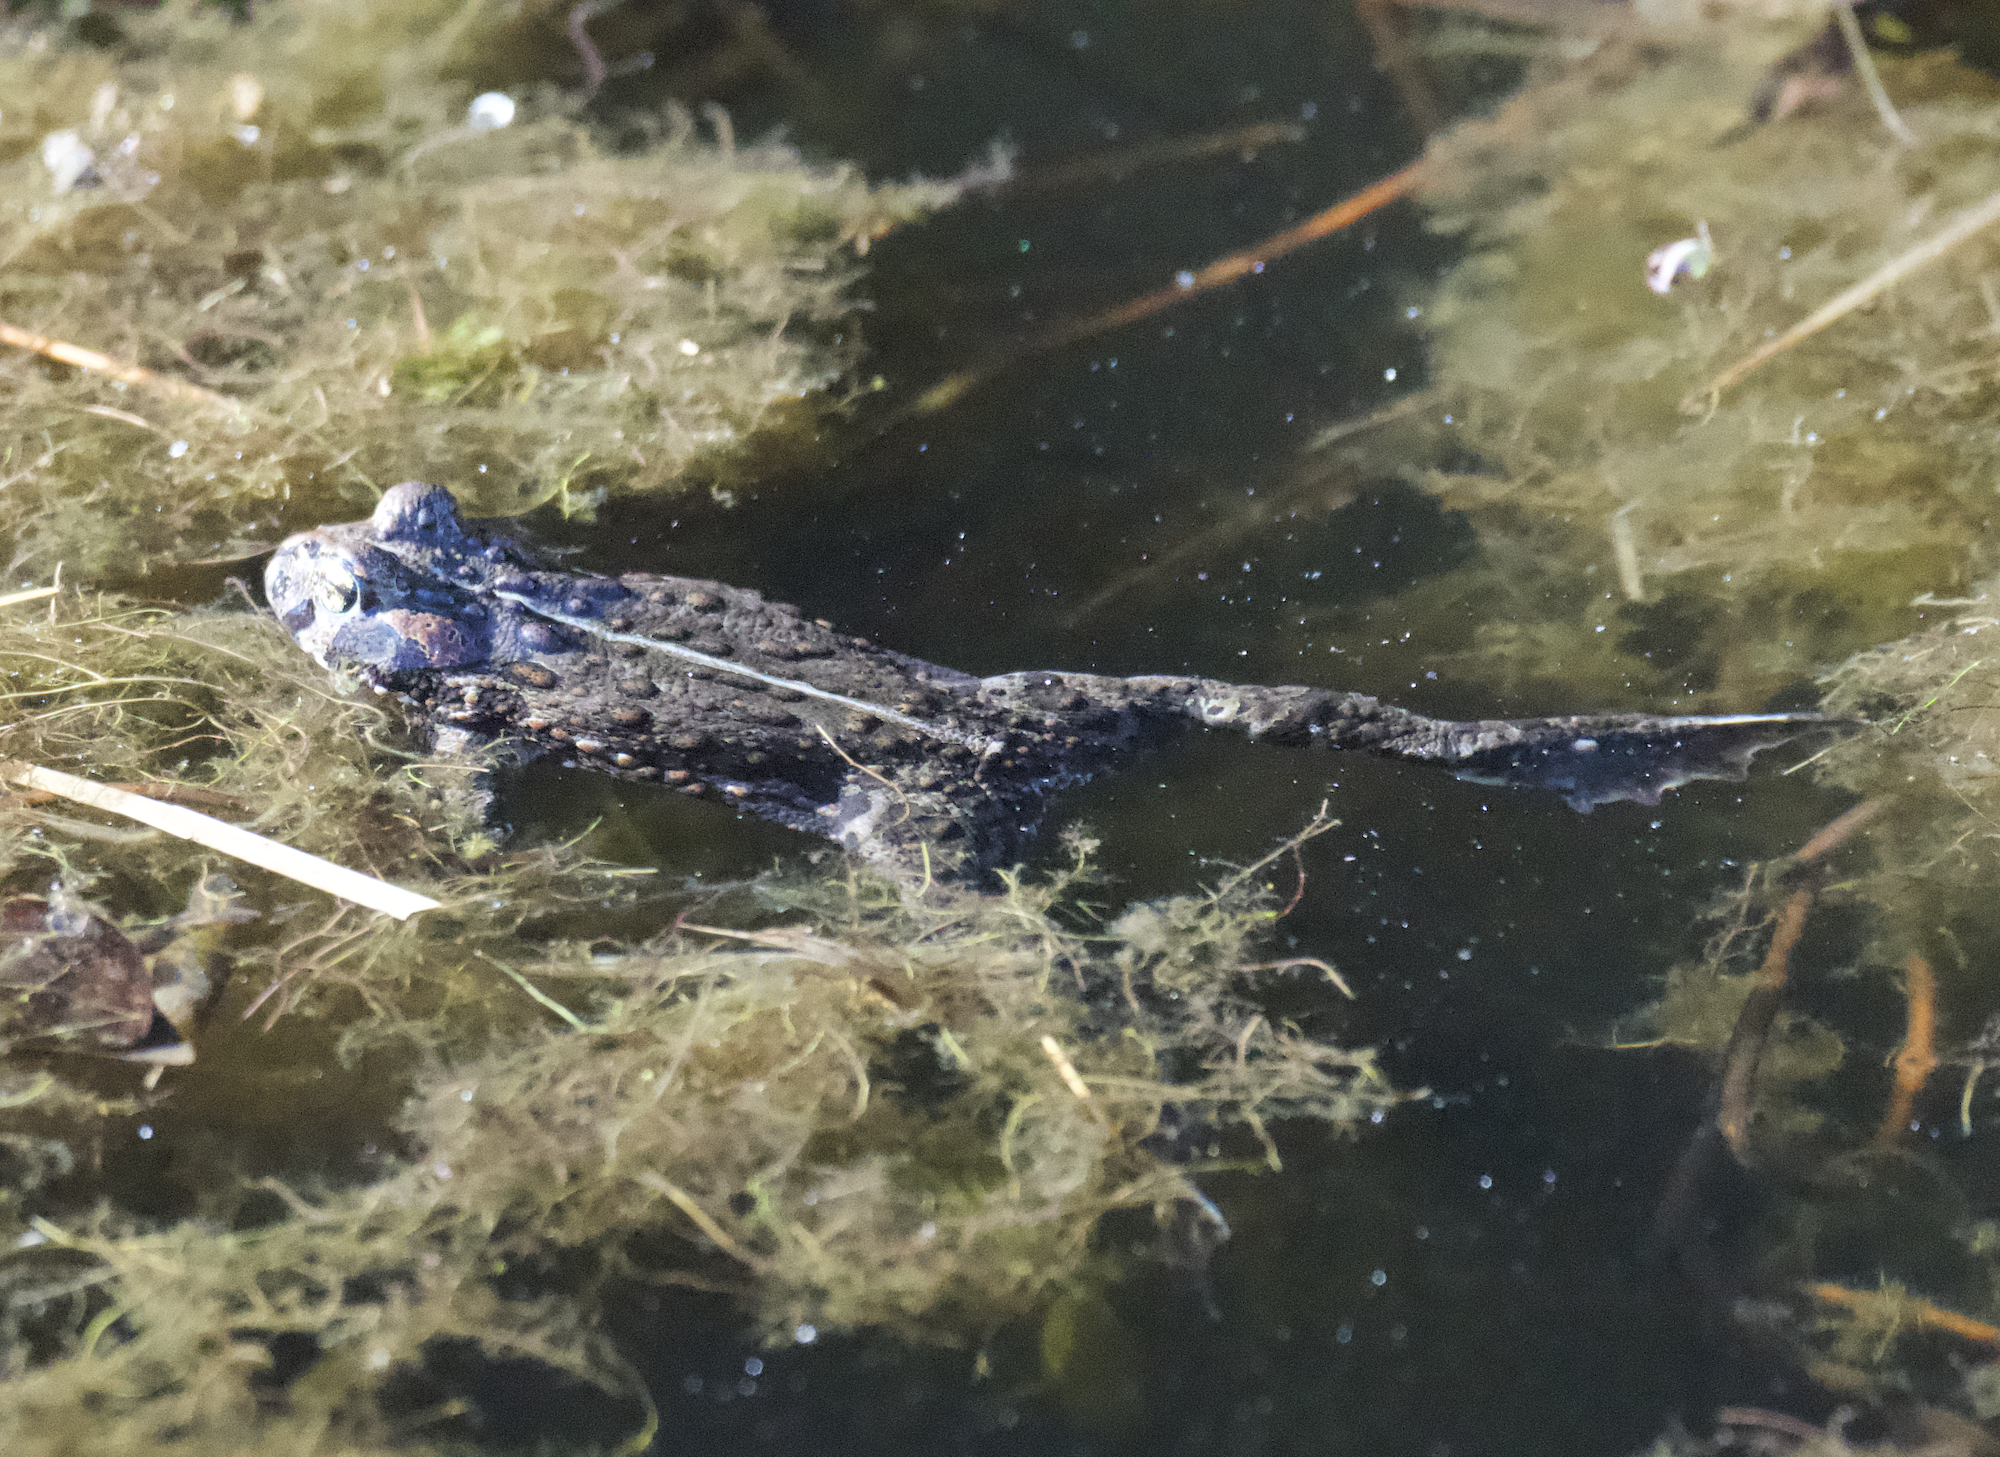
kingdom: Animalia
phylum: Chordata
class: Amphibia
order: Anura
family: Bufonidae
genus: Anaxyrus
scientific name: Anaxyrus boreas
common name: Western toad
